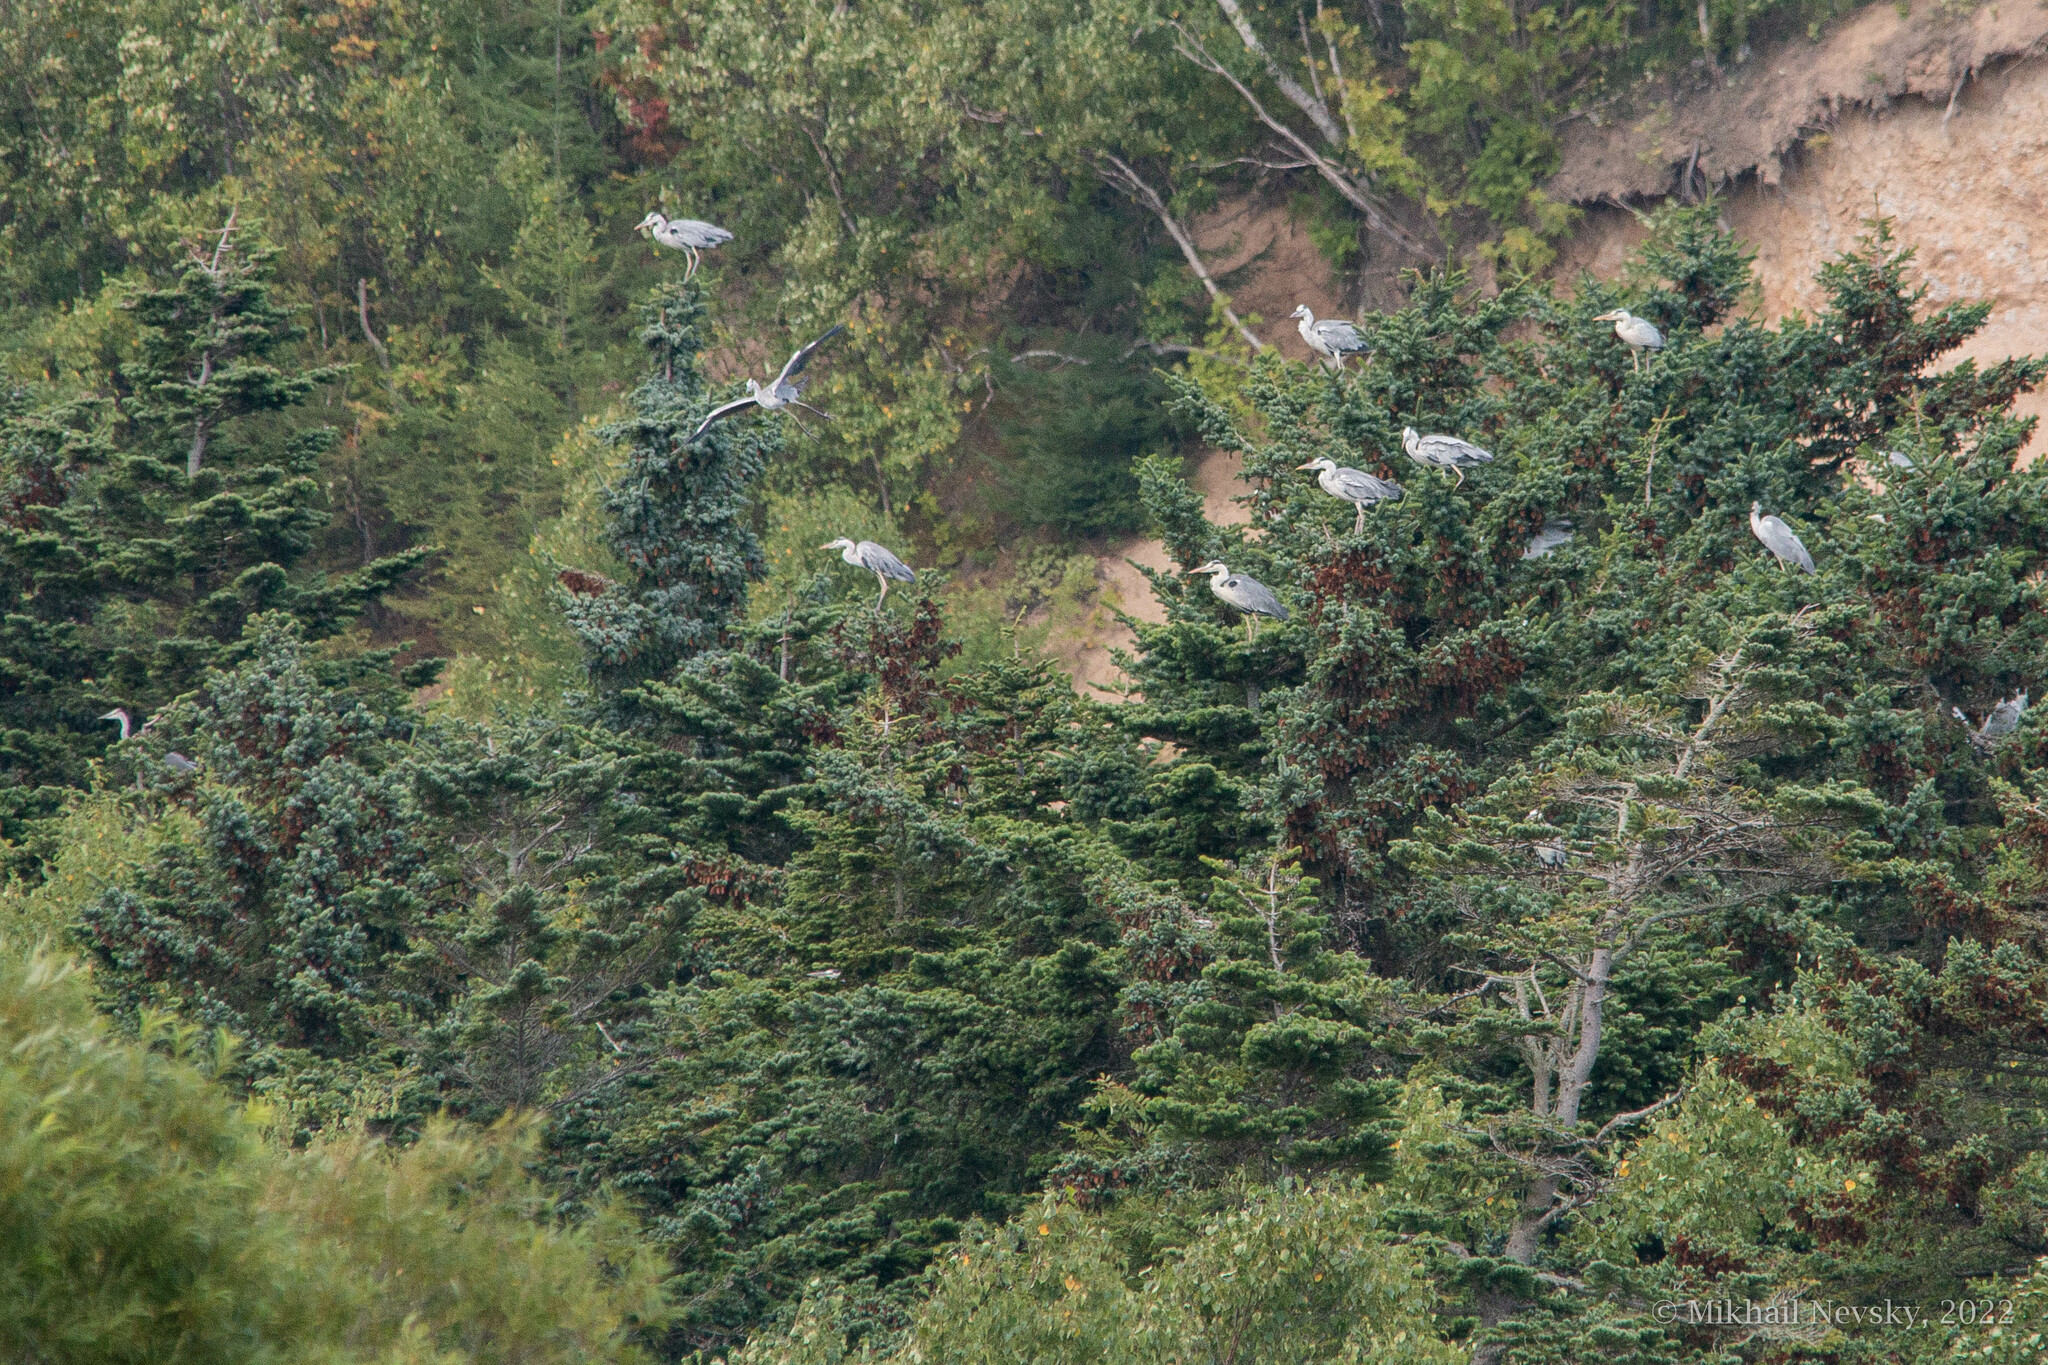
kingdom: Animalia
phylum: Chordata
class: Aves
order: Pelecaniformes
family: Ardeidae
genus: Ardea
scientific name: Ardea cinerea
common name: Grey heron
